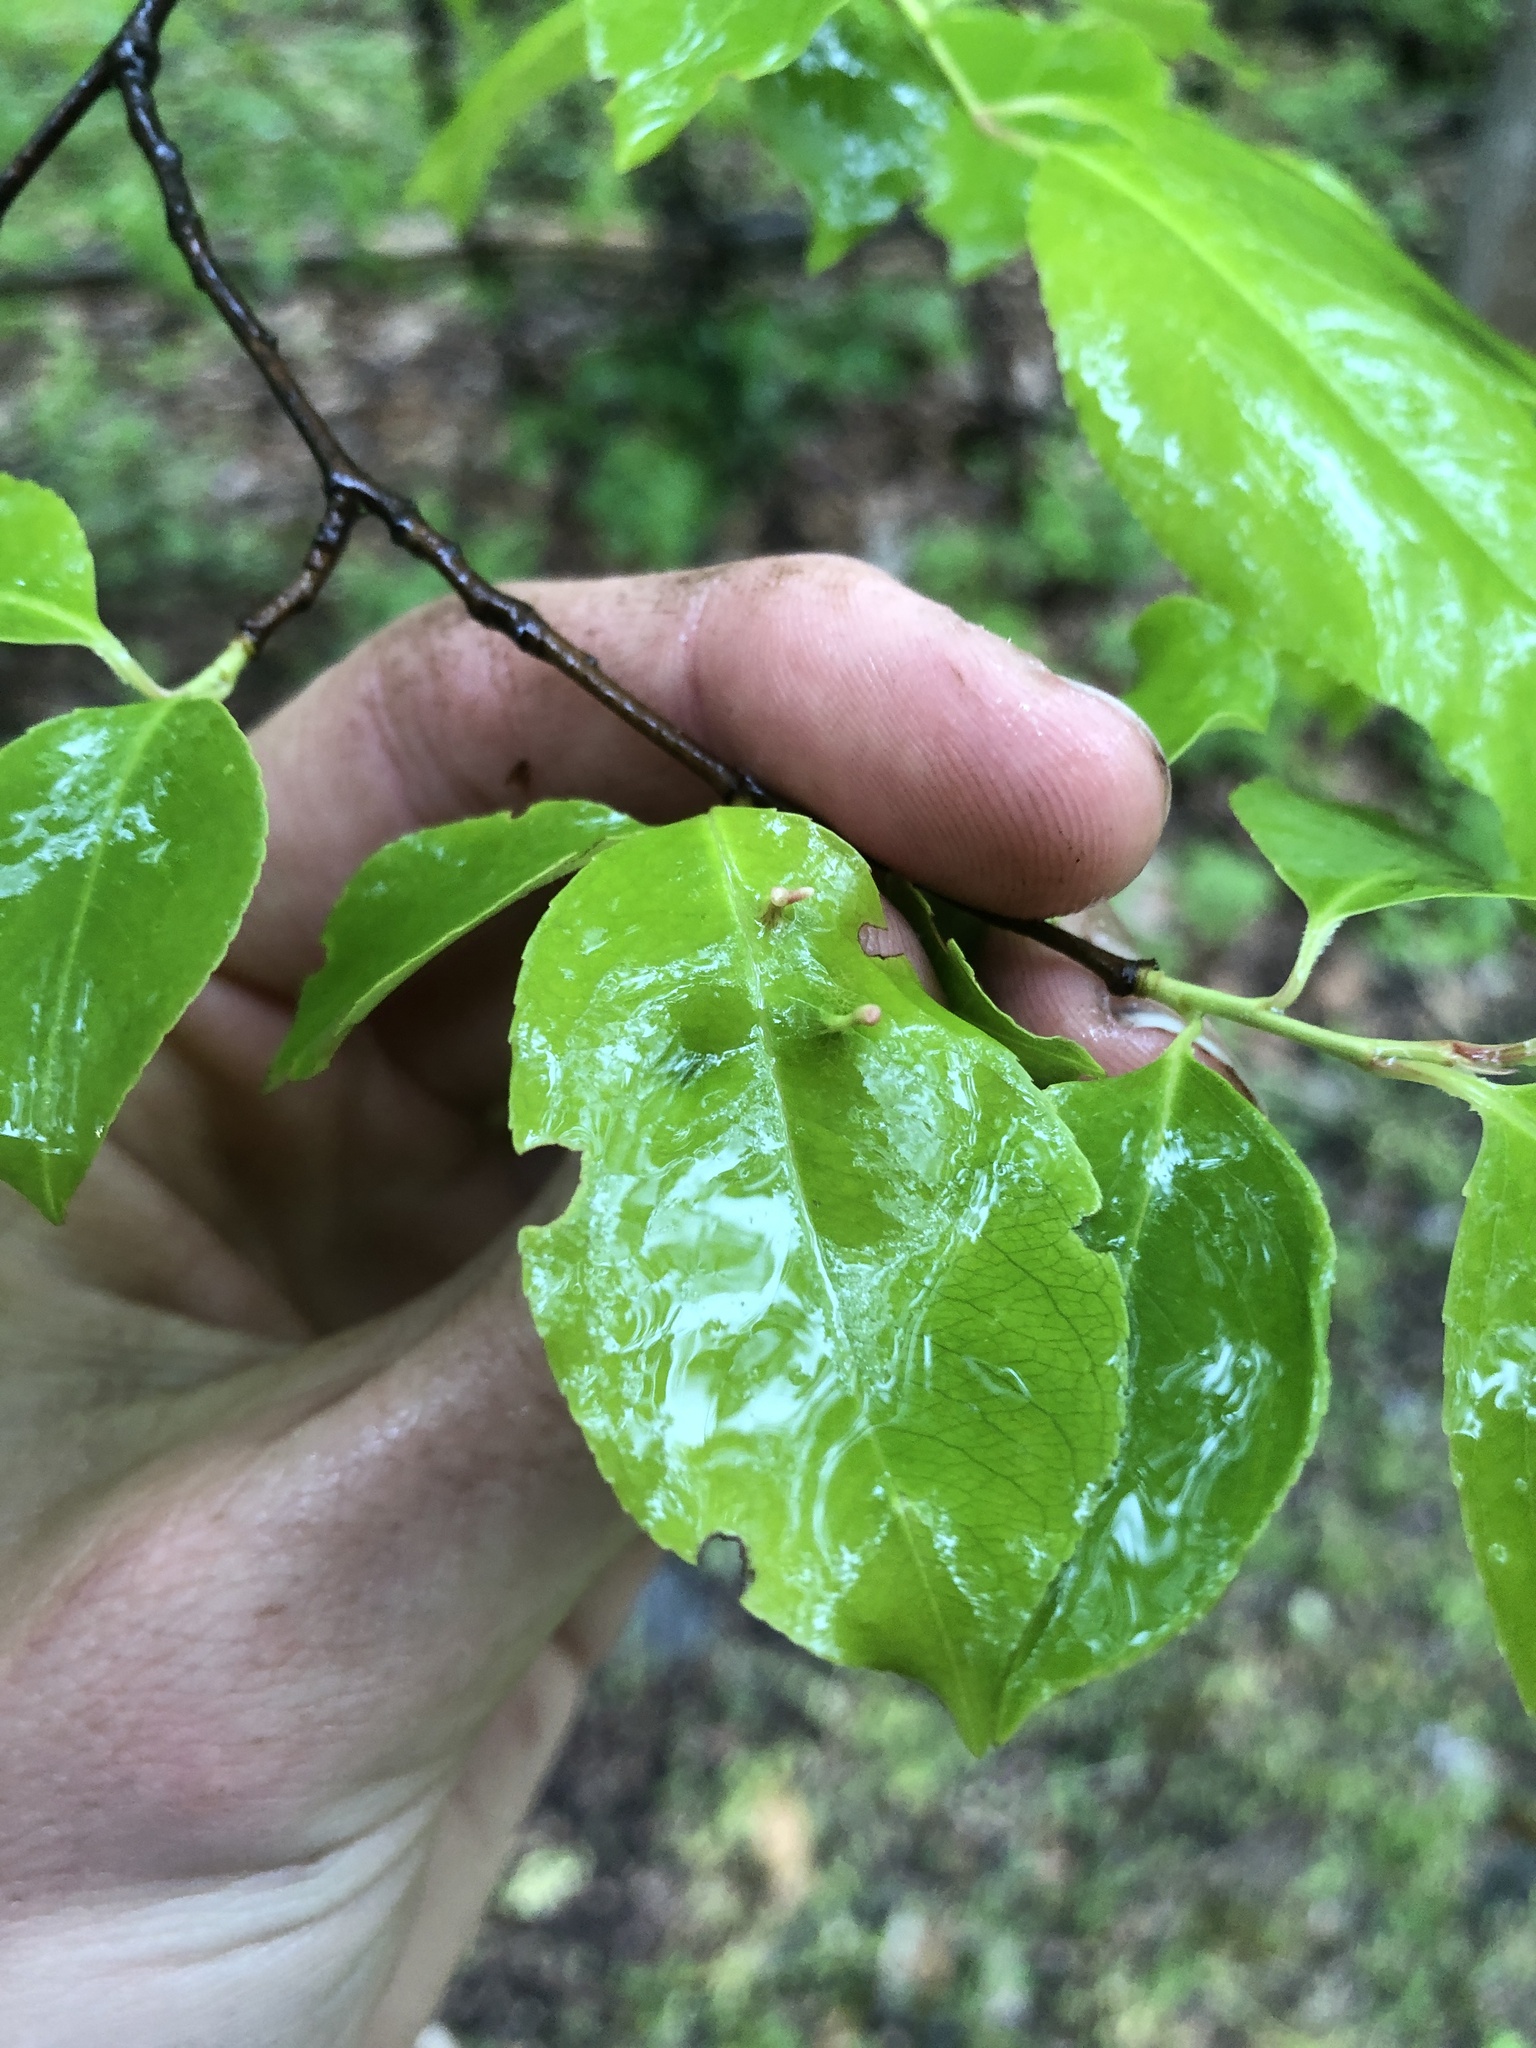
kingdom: Animalia
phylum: Arthropoda
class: Arachnida
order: Trombidiformes
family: Eriophyidae
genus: Eriophyes
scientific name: Eriophyes
